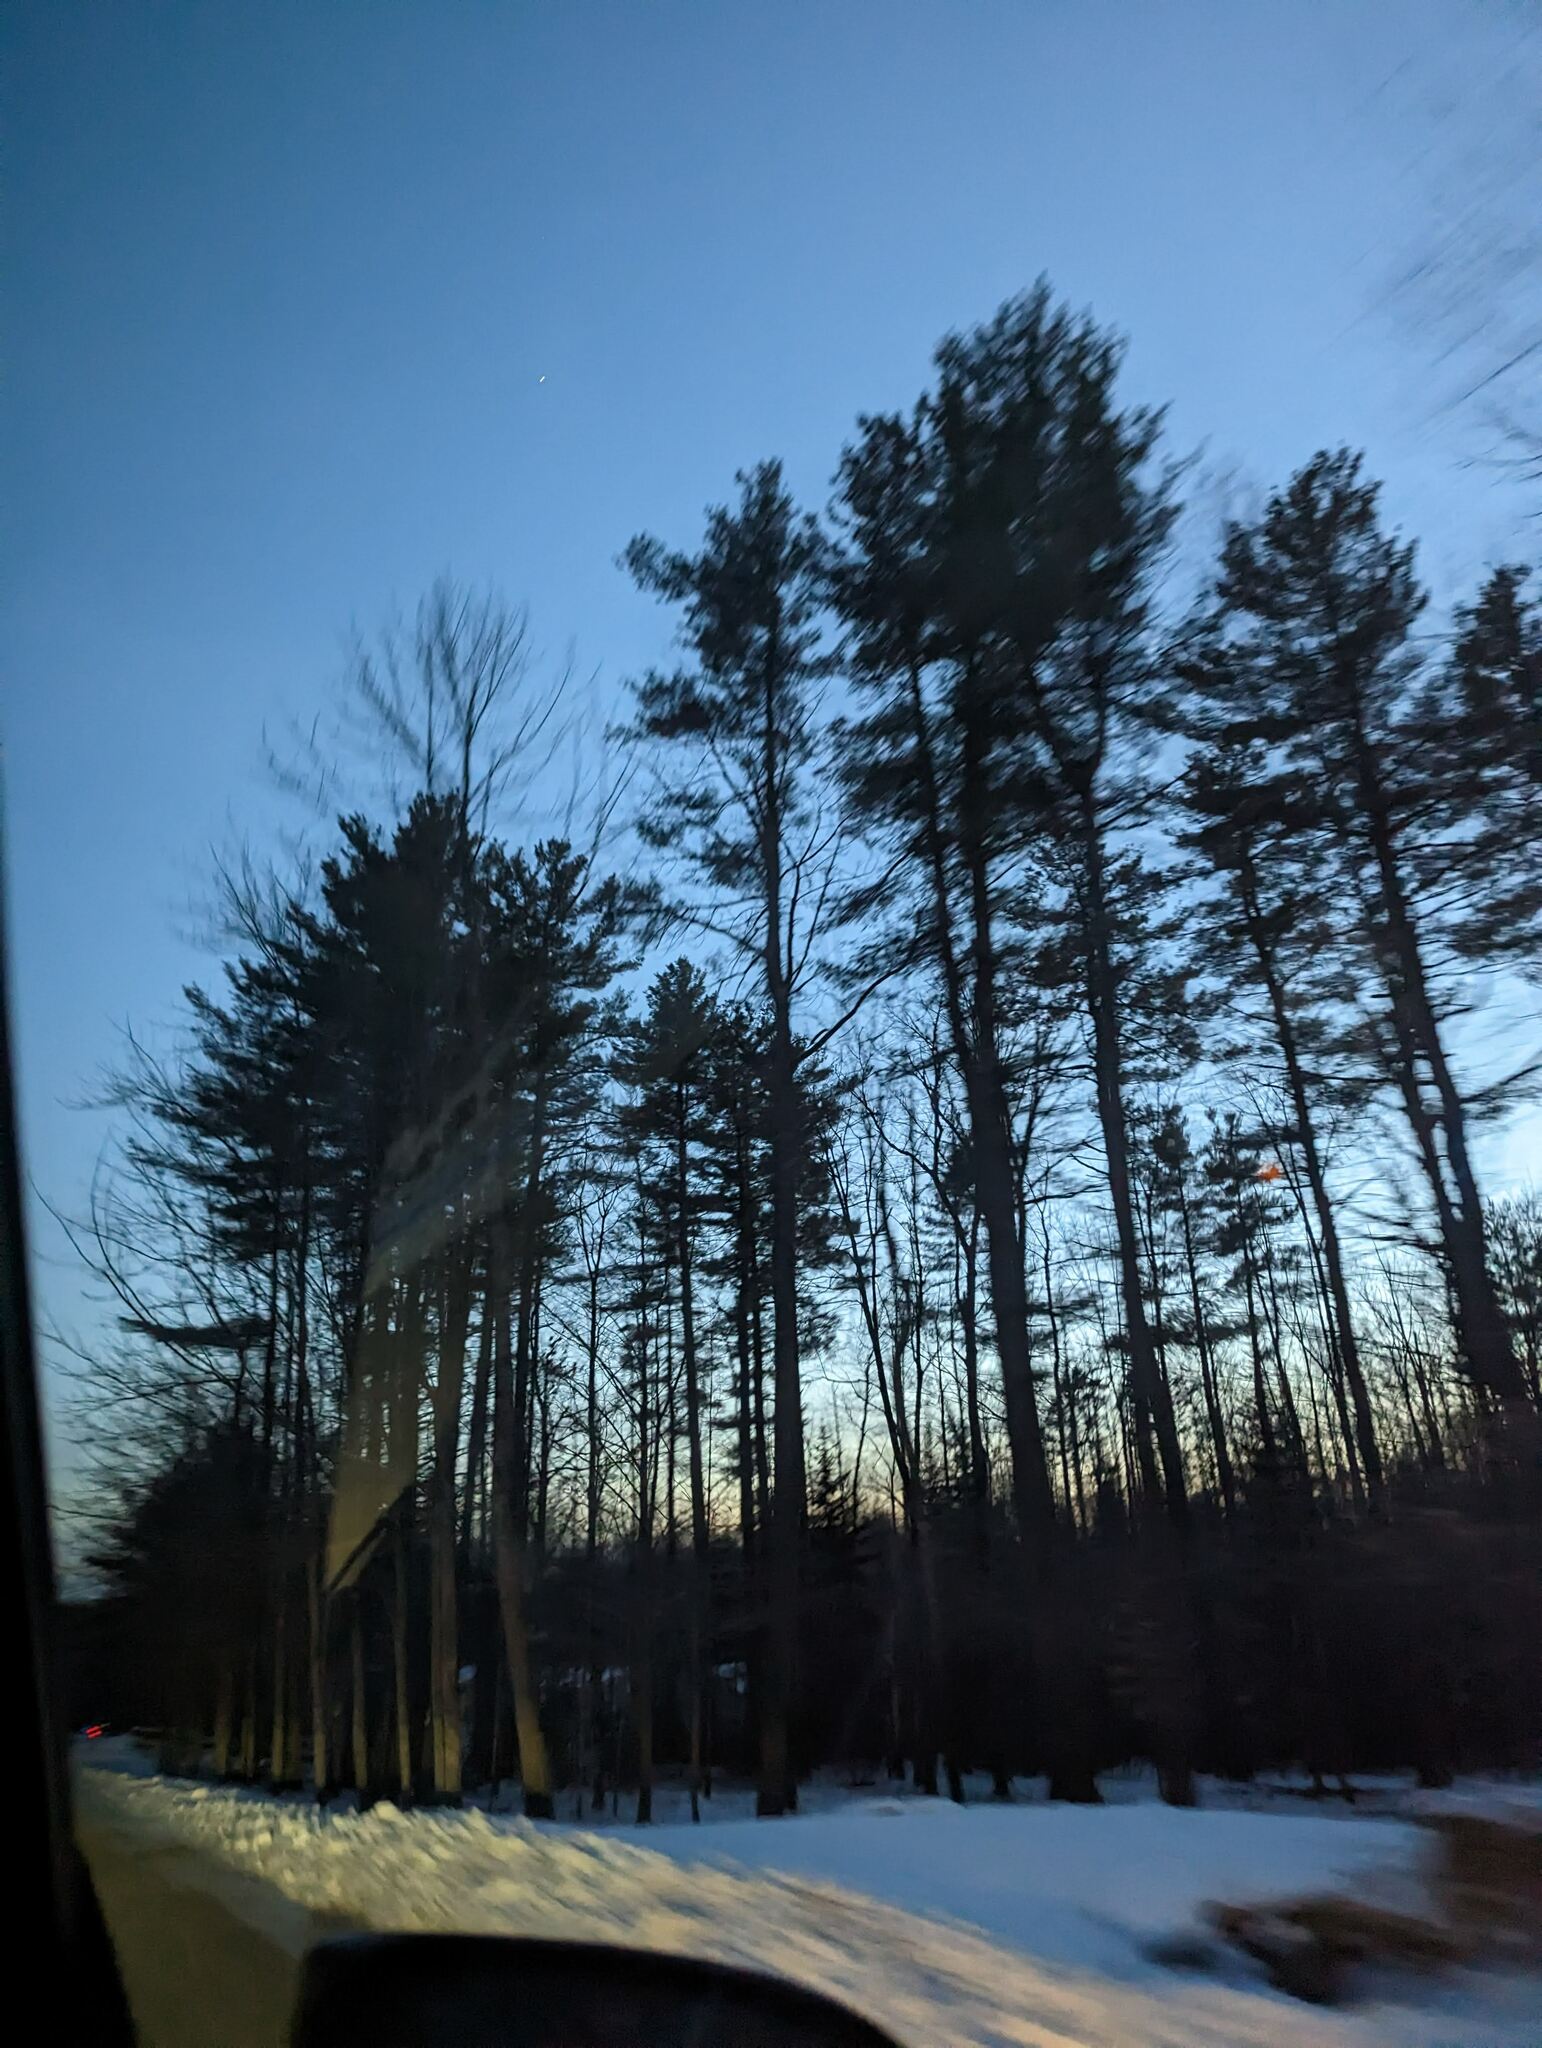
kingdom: Plantae
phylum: Tracheophyta
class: Pinopsida
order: Pinales
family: Pinaceae
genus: Pinus
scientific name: Pinus strobus
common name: Weymouth pine
